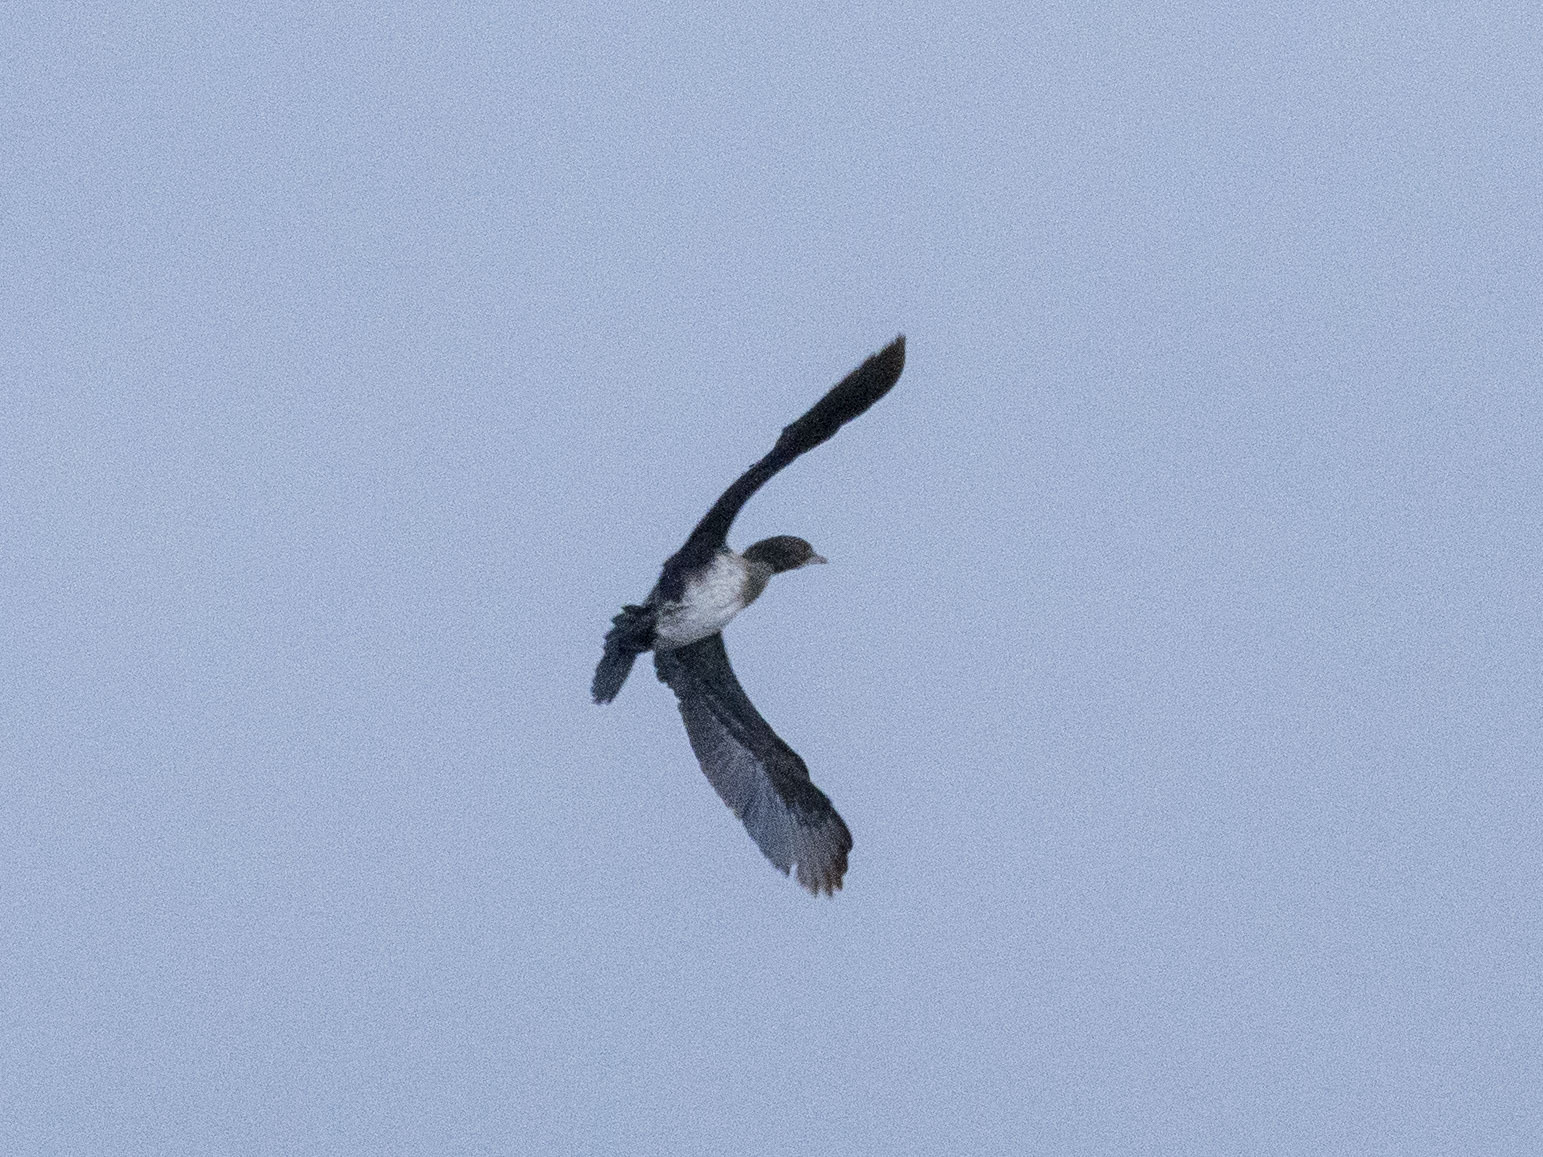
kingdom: Animalia
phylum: Chordata
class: Aves
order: Suliformes
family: Phalacrocoracidae
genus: Microcarbo
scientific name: Microcarbo pygmaeus
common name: Pygmy cormorant
